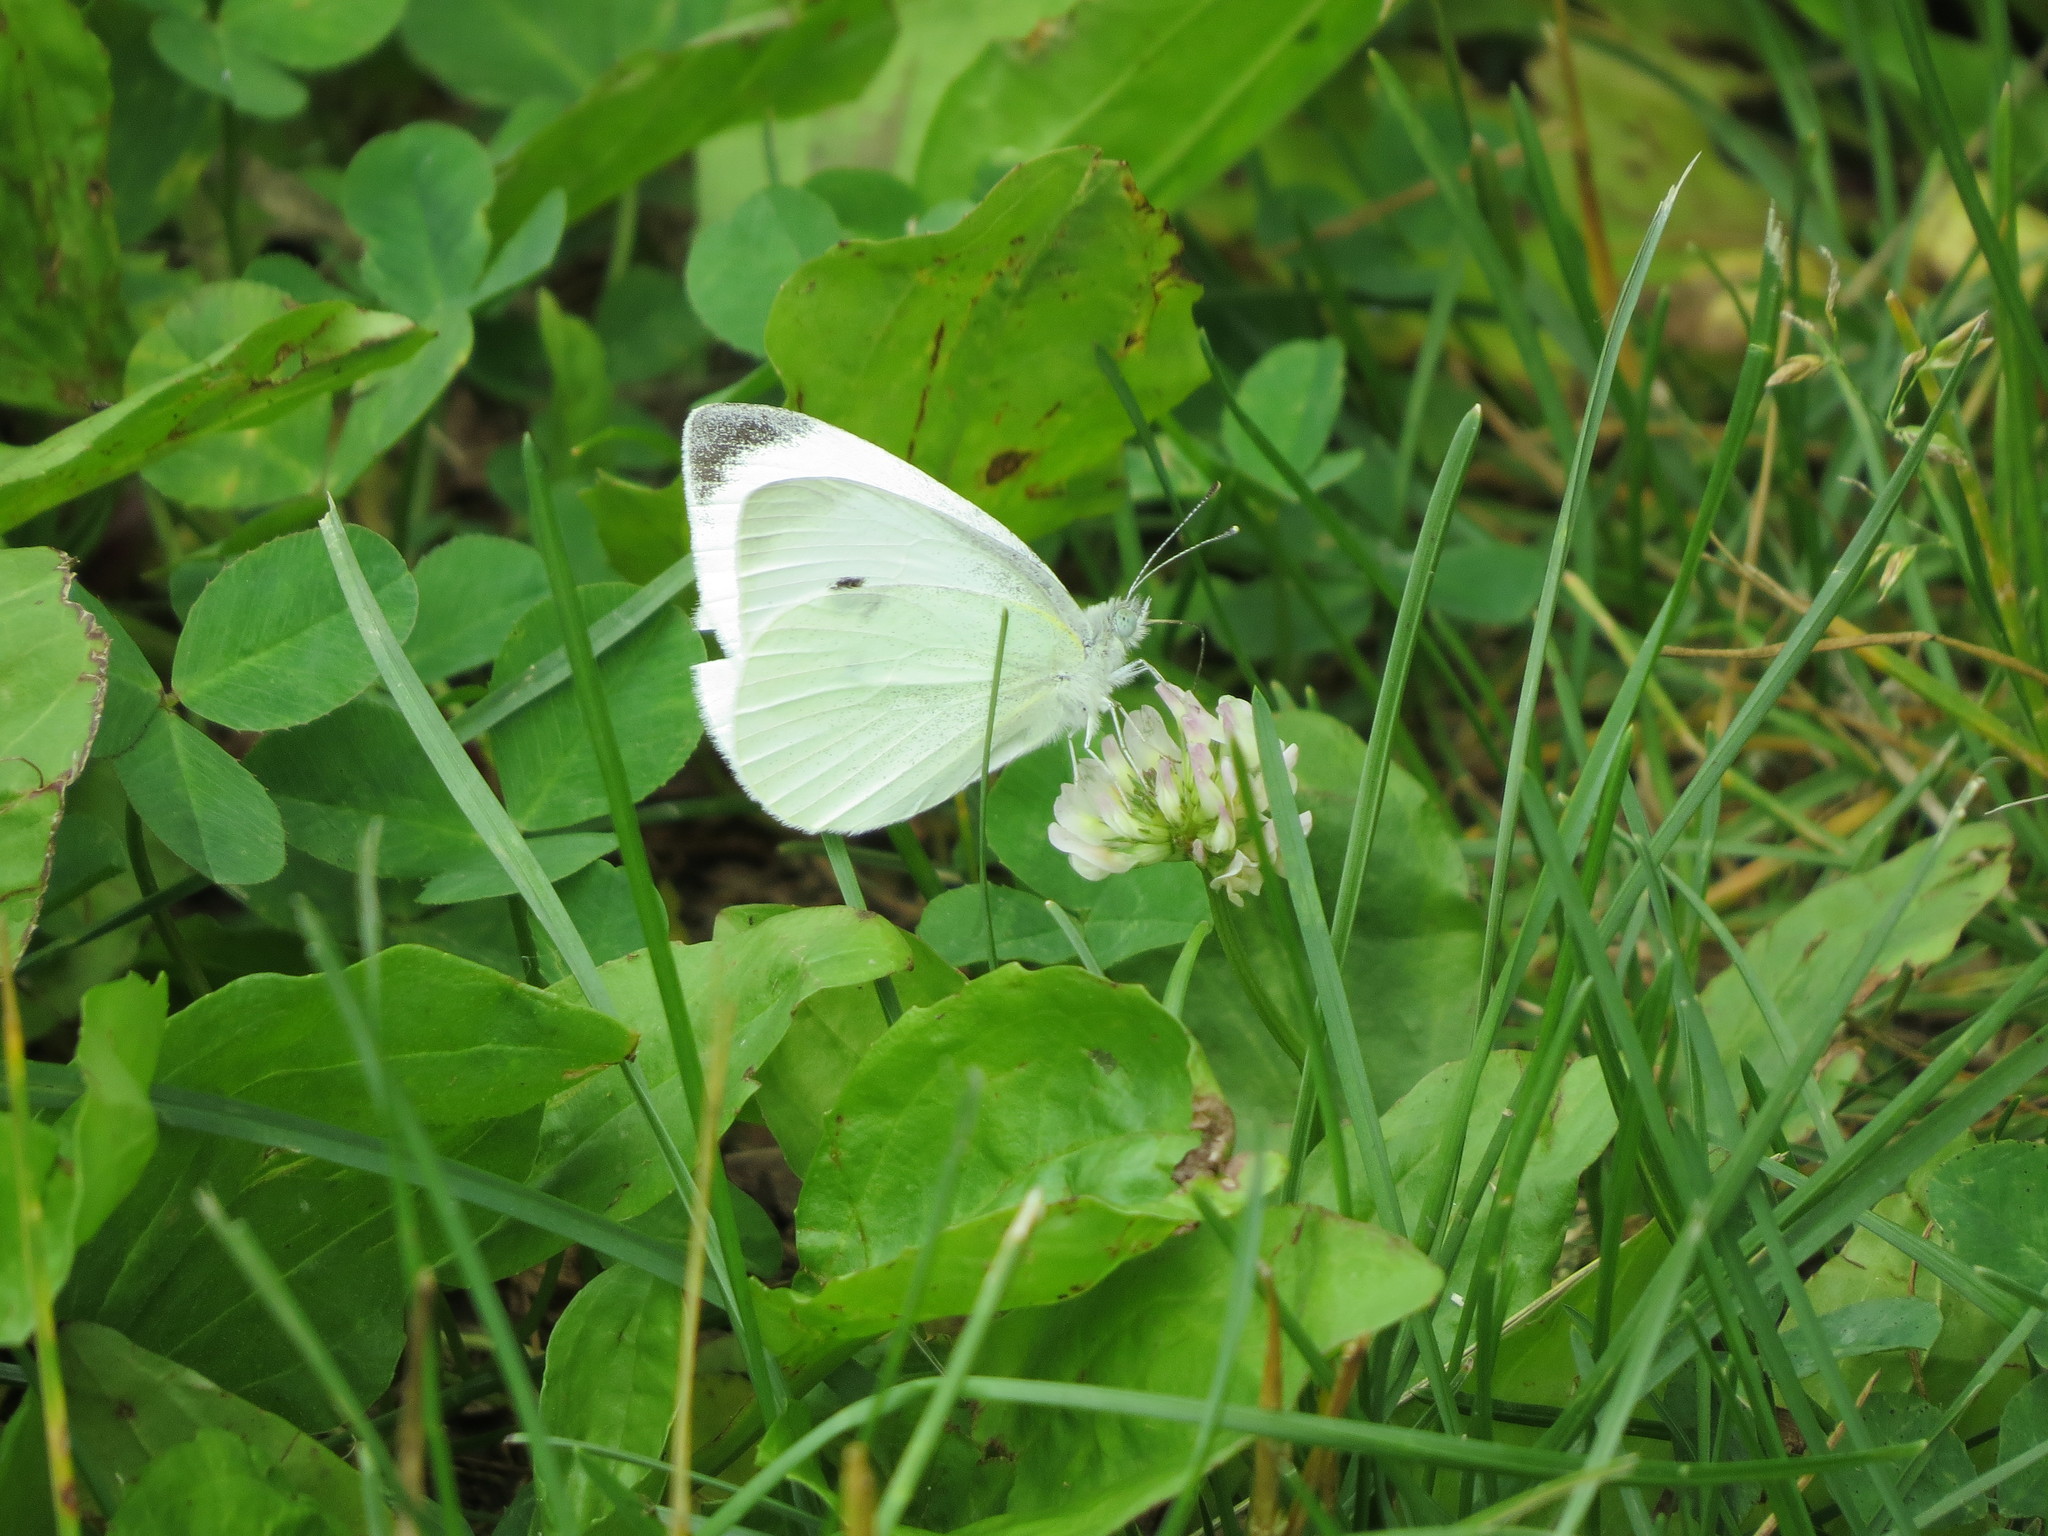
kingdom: Animalia
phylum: Arthropoda
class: Insecta
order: Lepidoptera
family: Pieridae
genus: Pieris
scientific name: Pieris rapae
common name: Small white
